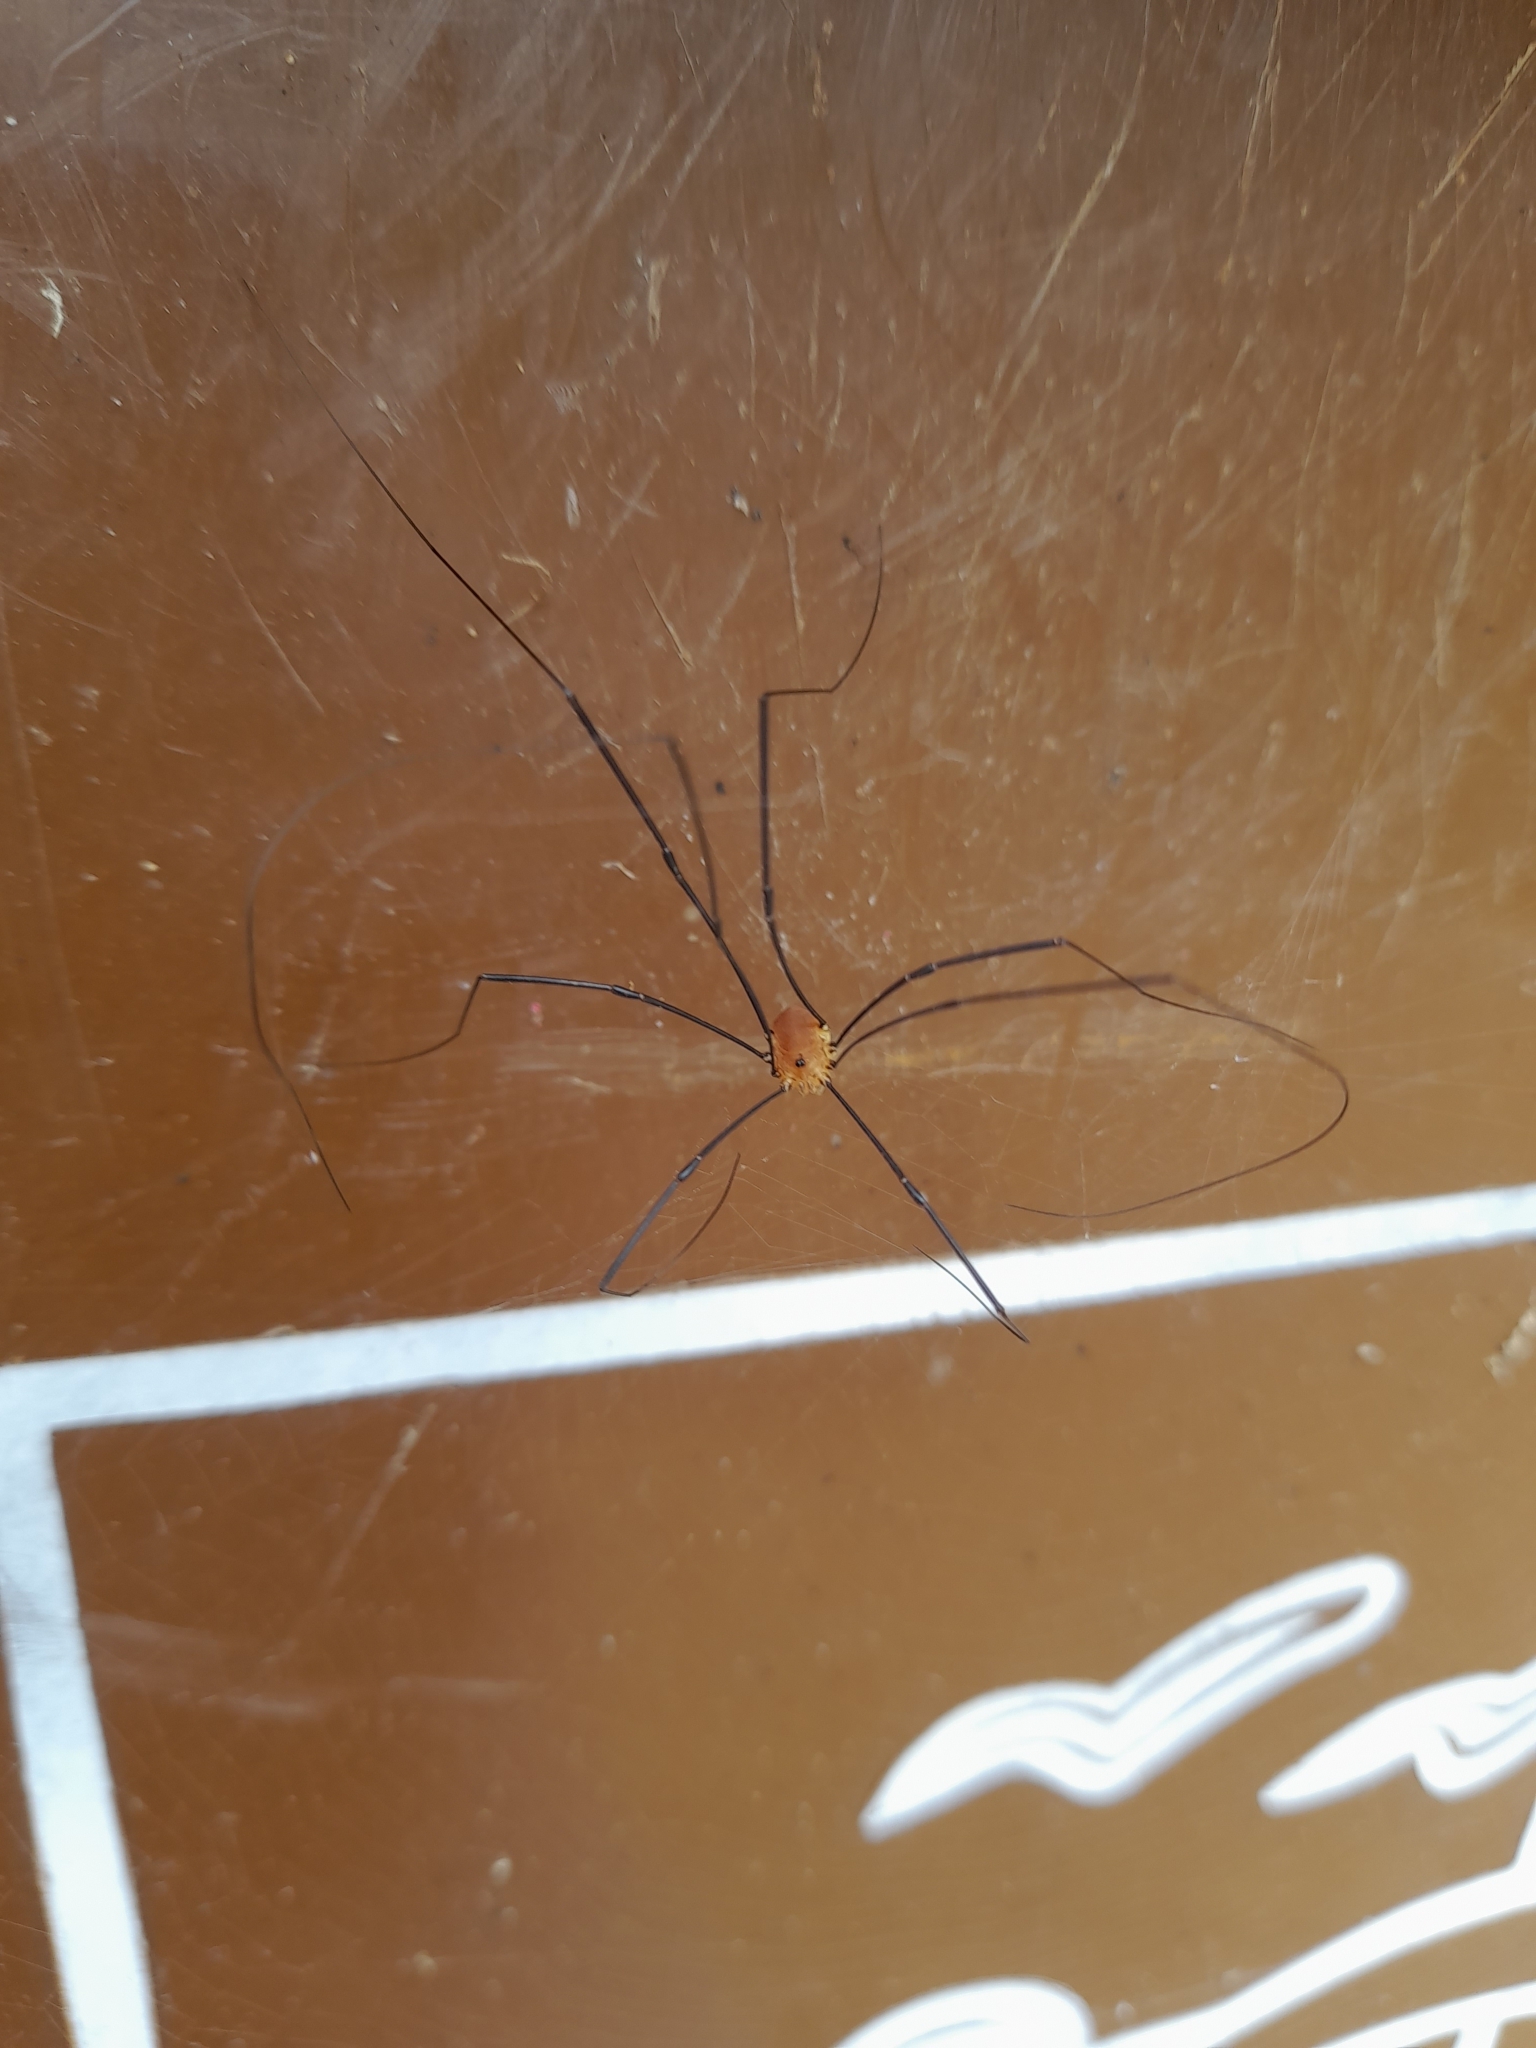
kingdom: Animalia
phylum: Arthropoda
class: Arachnida
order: Opiliones
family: Sclerosomatidae
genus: Leiobunum
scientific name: Leiobunum rotundum
